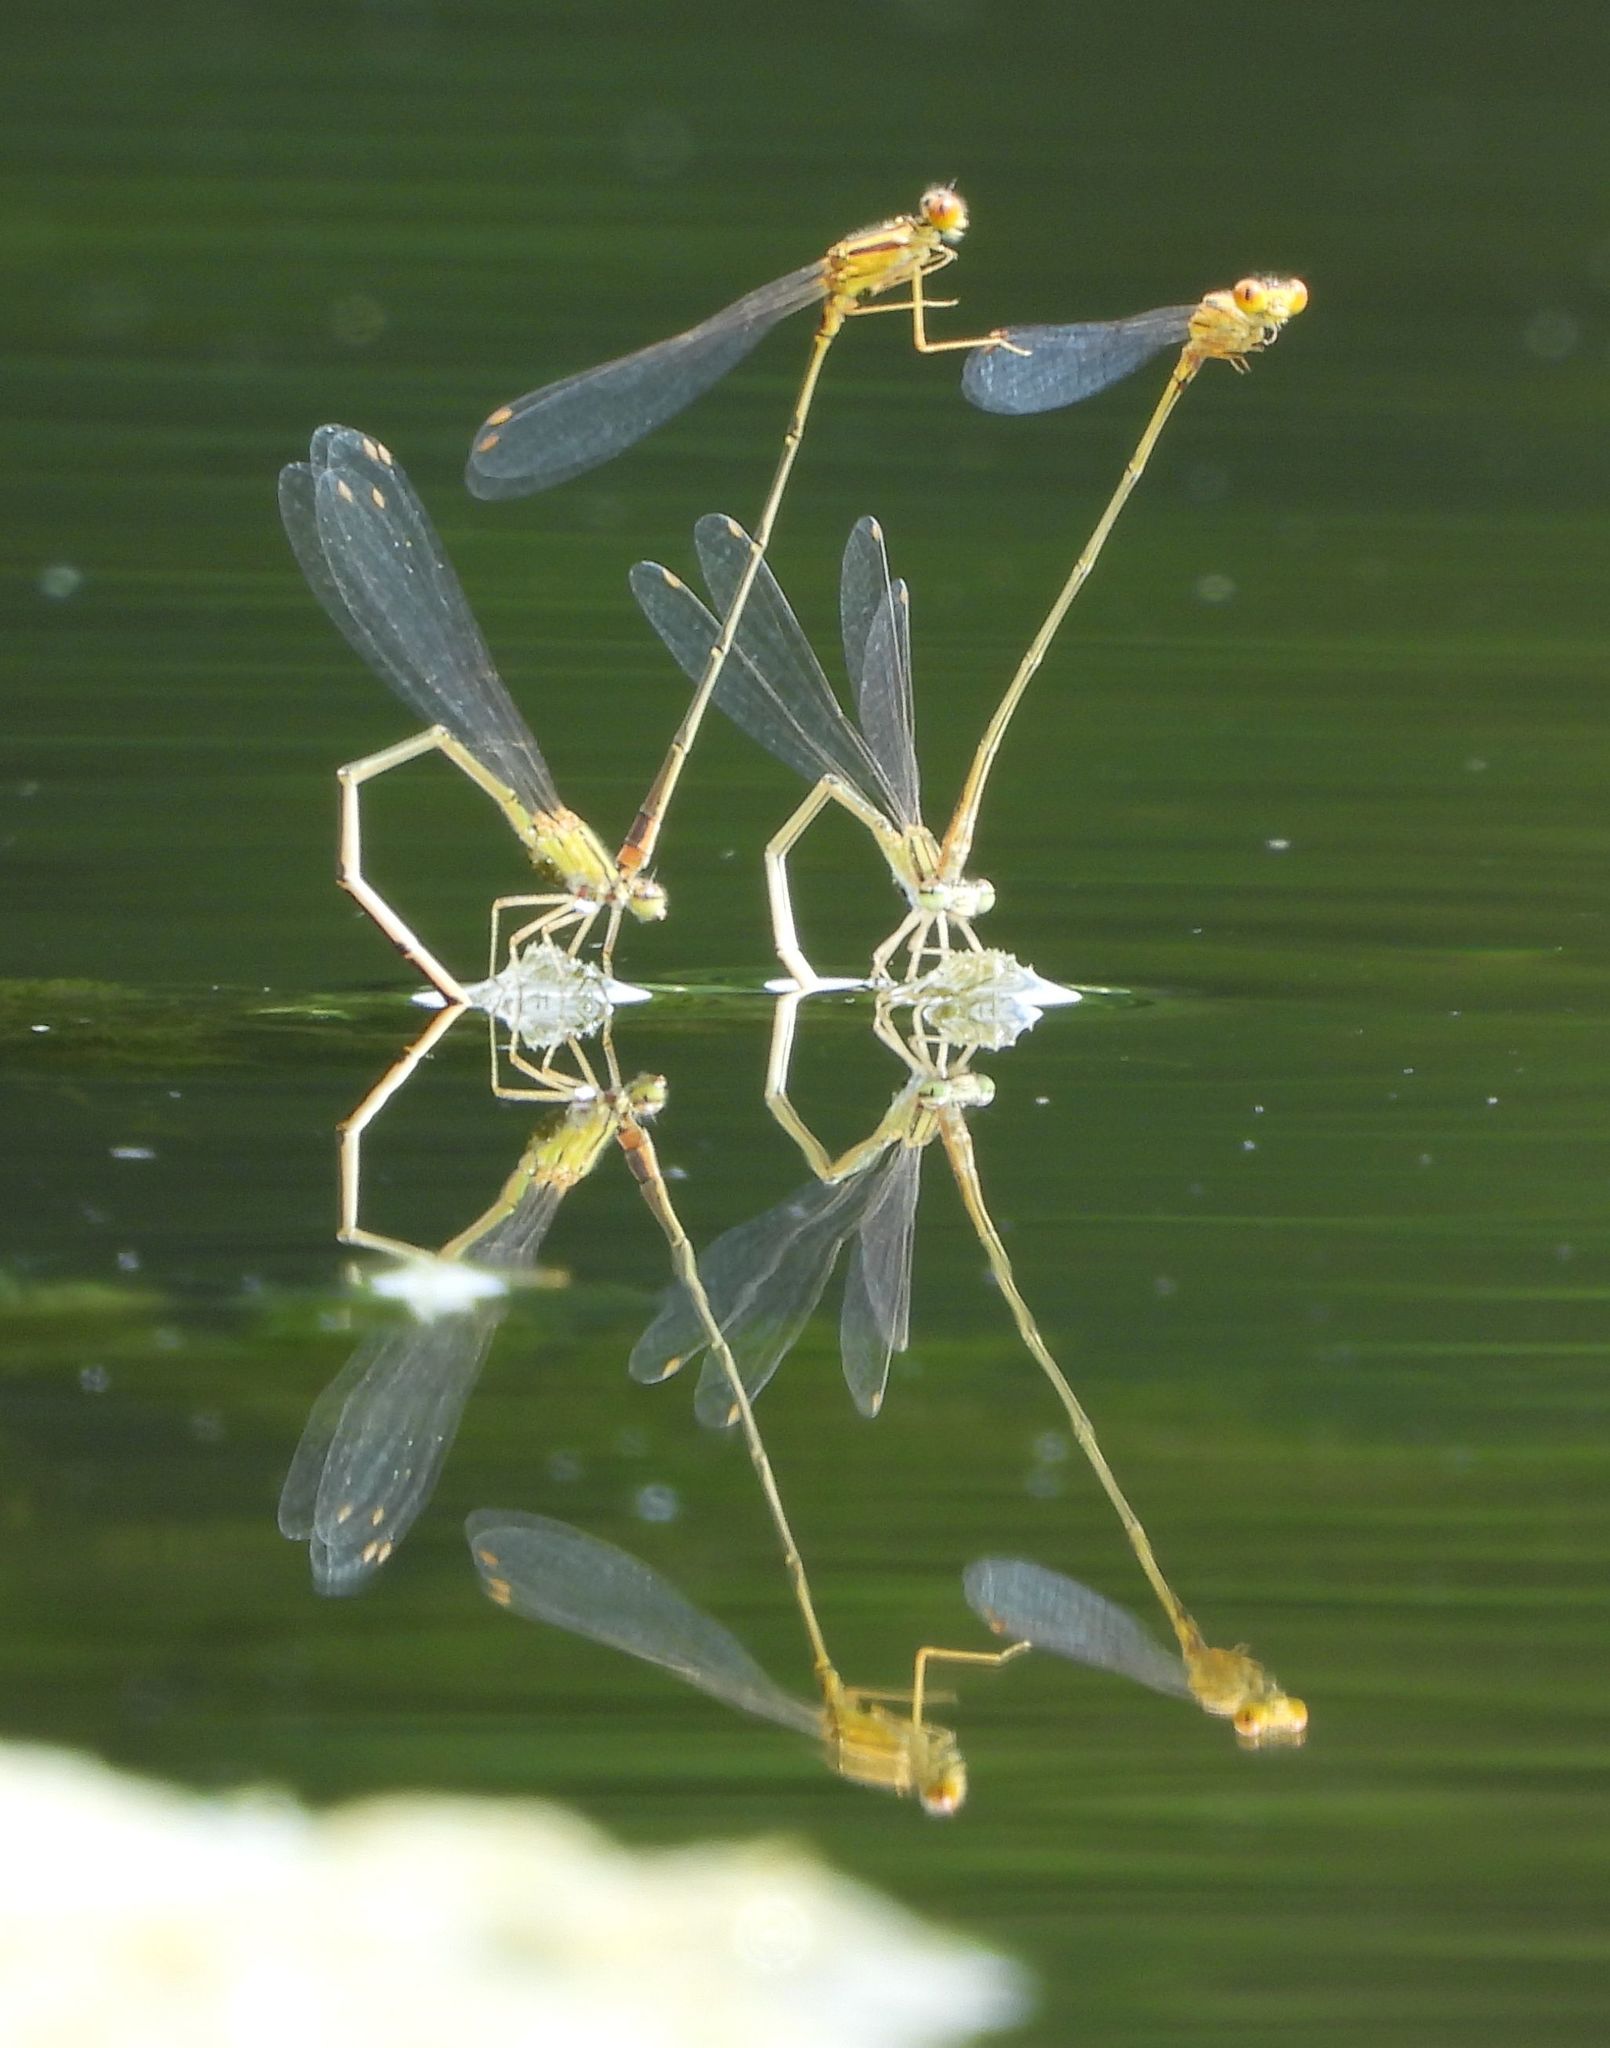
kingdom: Animalia
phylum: Arthropoda
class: Insecta
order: Odonata
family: Coenagrionidae
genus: Enallagma
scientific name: Enallagma signatum
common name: Orange bluet
